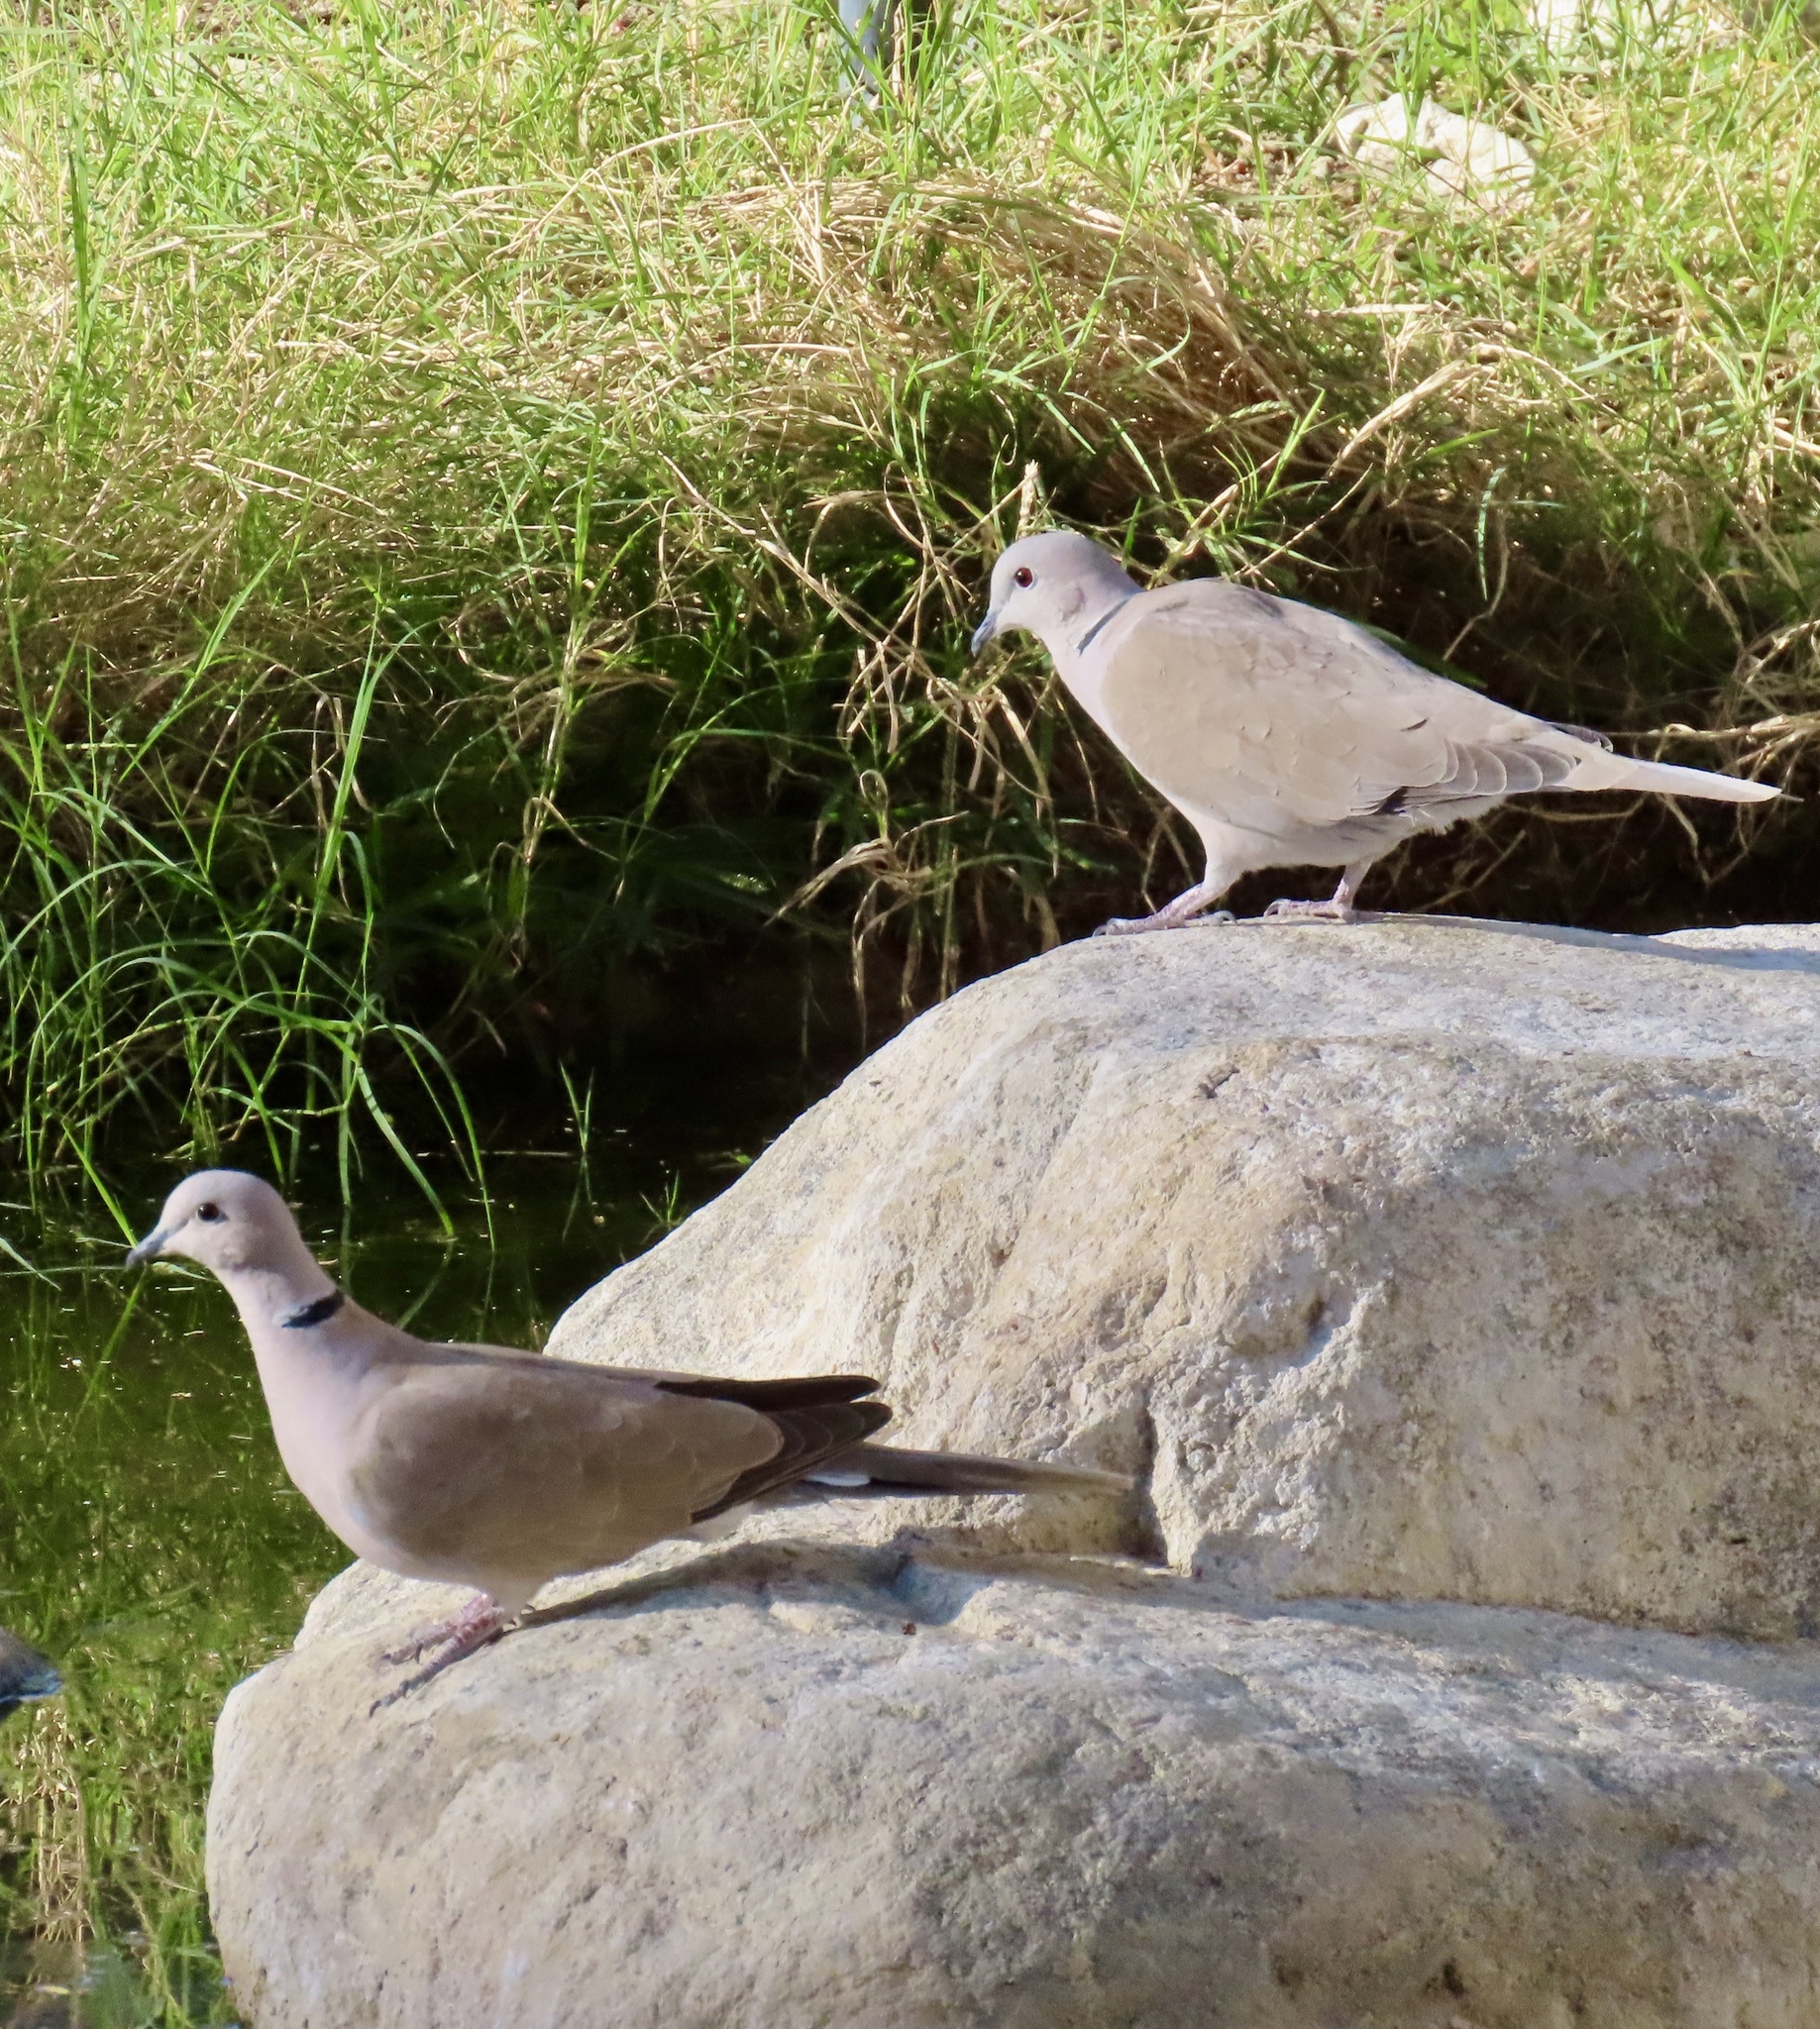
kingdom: Animalia
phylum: Chordata
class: Aves
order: Columbiformes
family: Columbidae
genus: Streptopelia
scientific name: Streptopelia decaocto
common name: Eurasian collared dove
